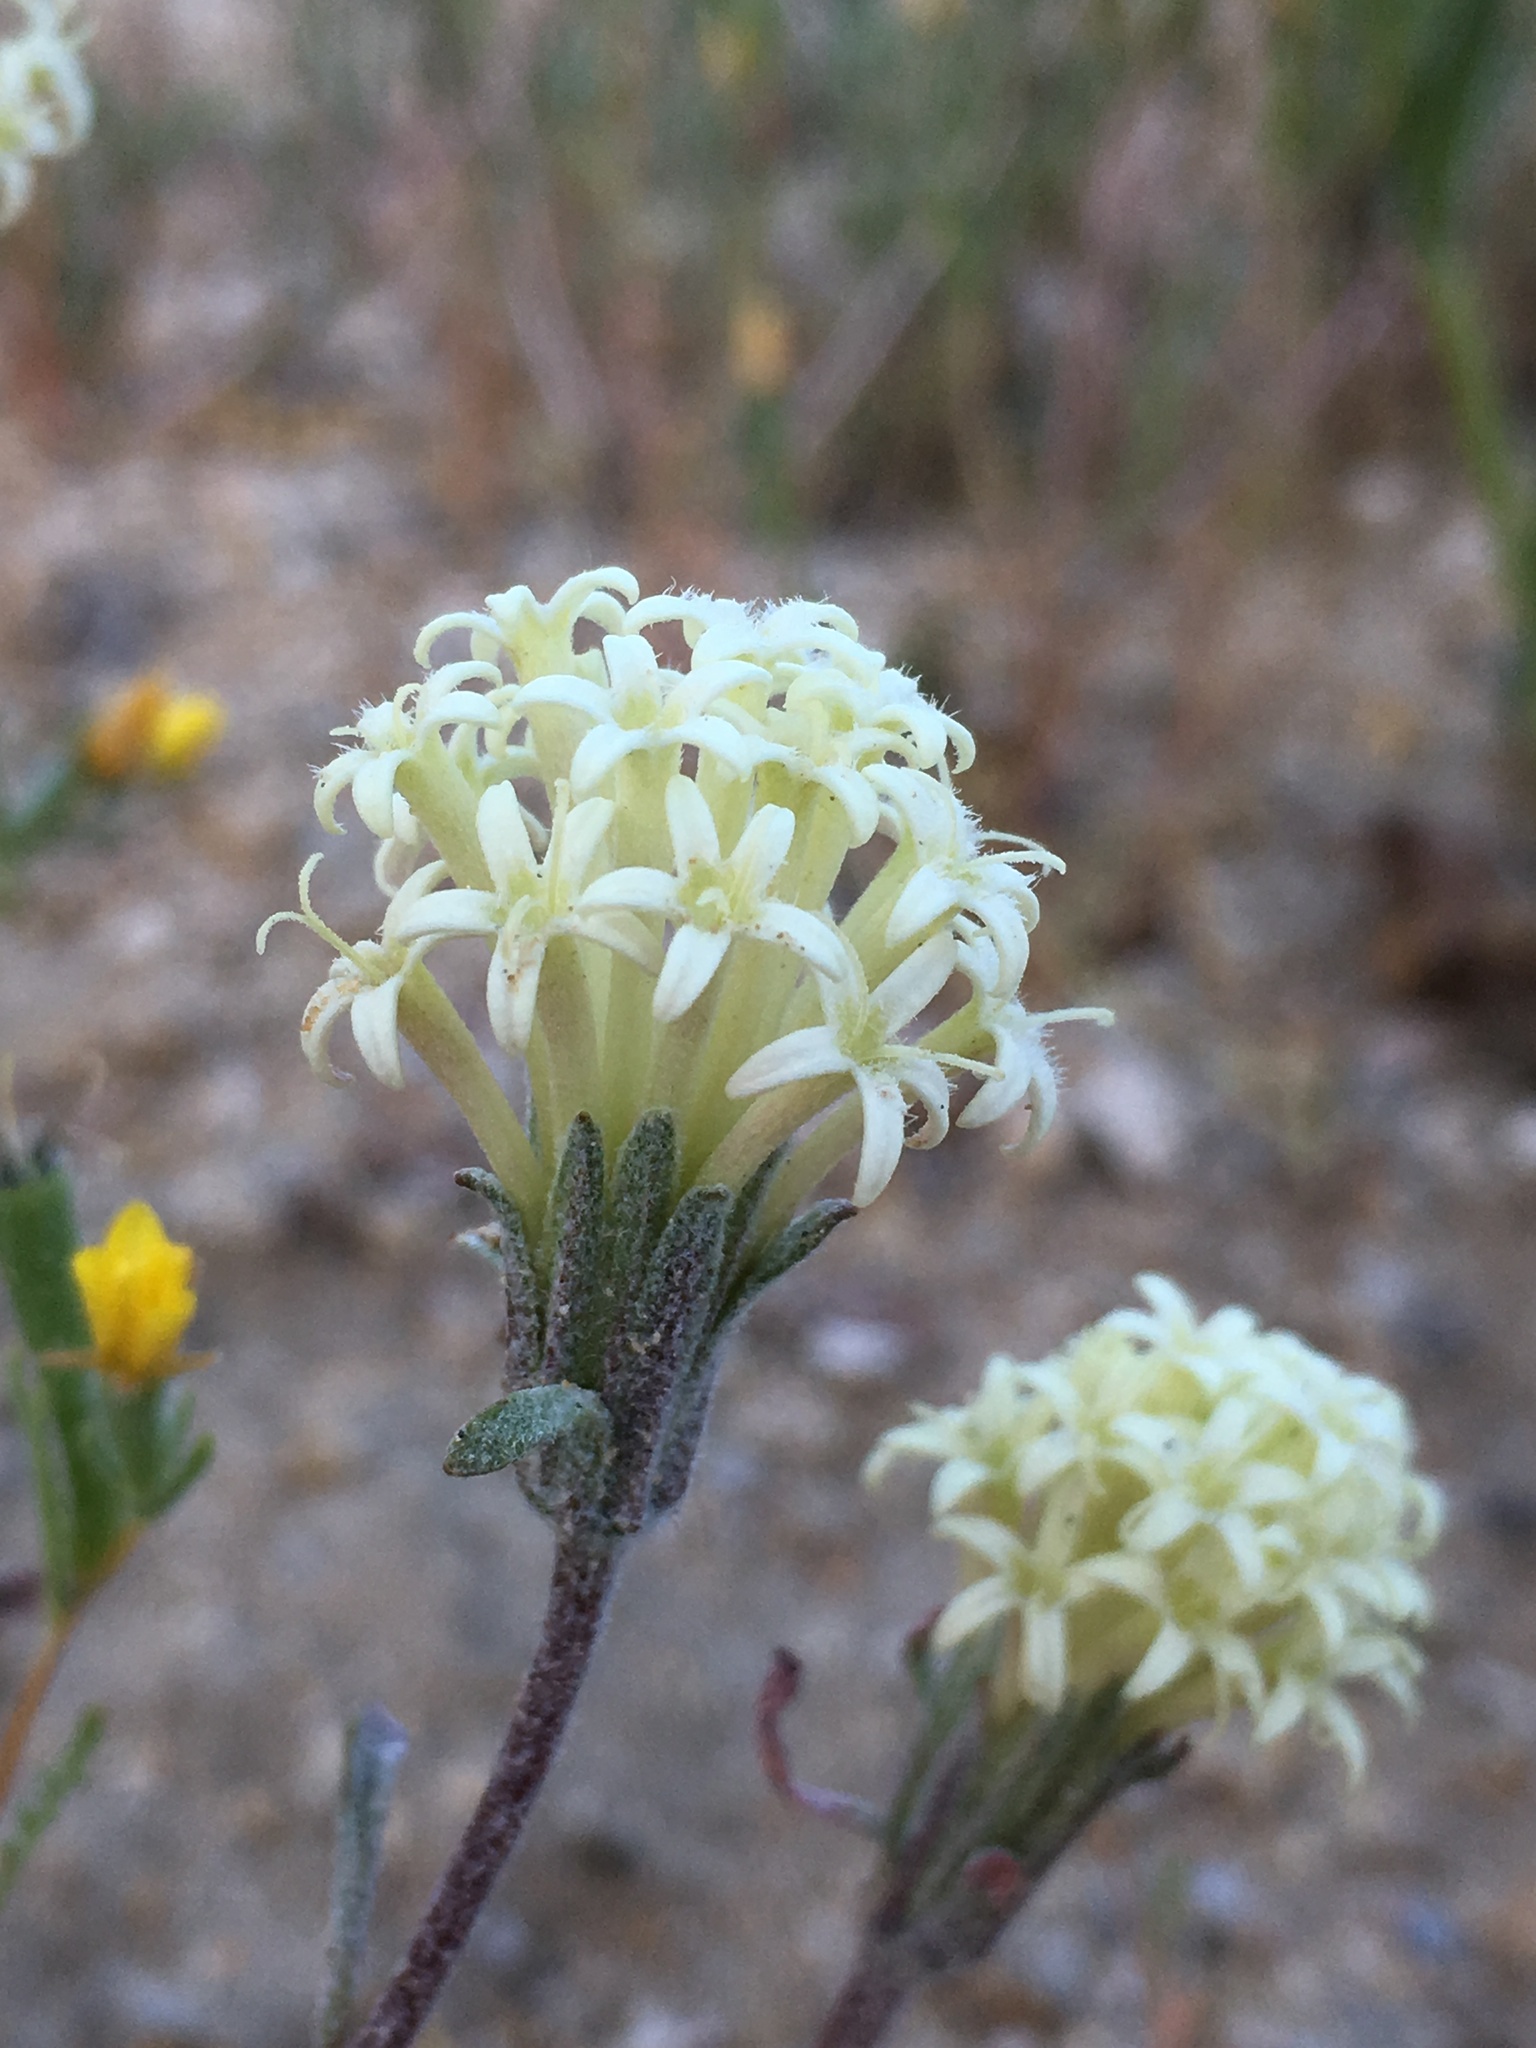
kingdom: Plantae
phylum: Tracheophyta
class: Magnoliopsida
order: Asterales
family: Asteraceae
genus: Chaenactis
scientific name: Chaenactis macrantha
